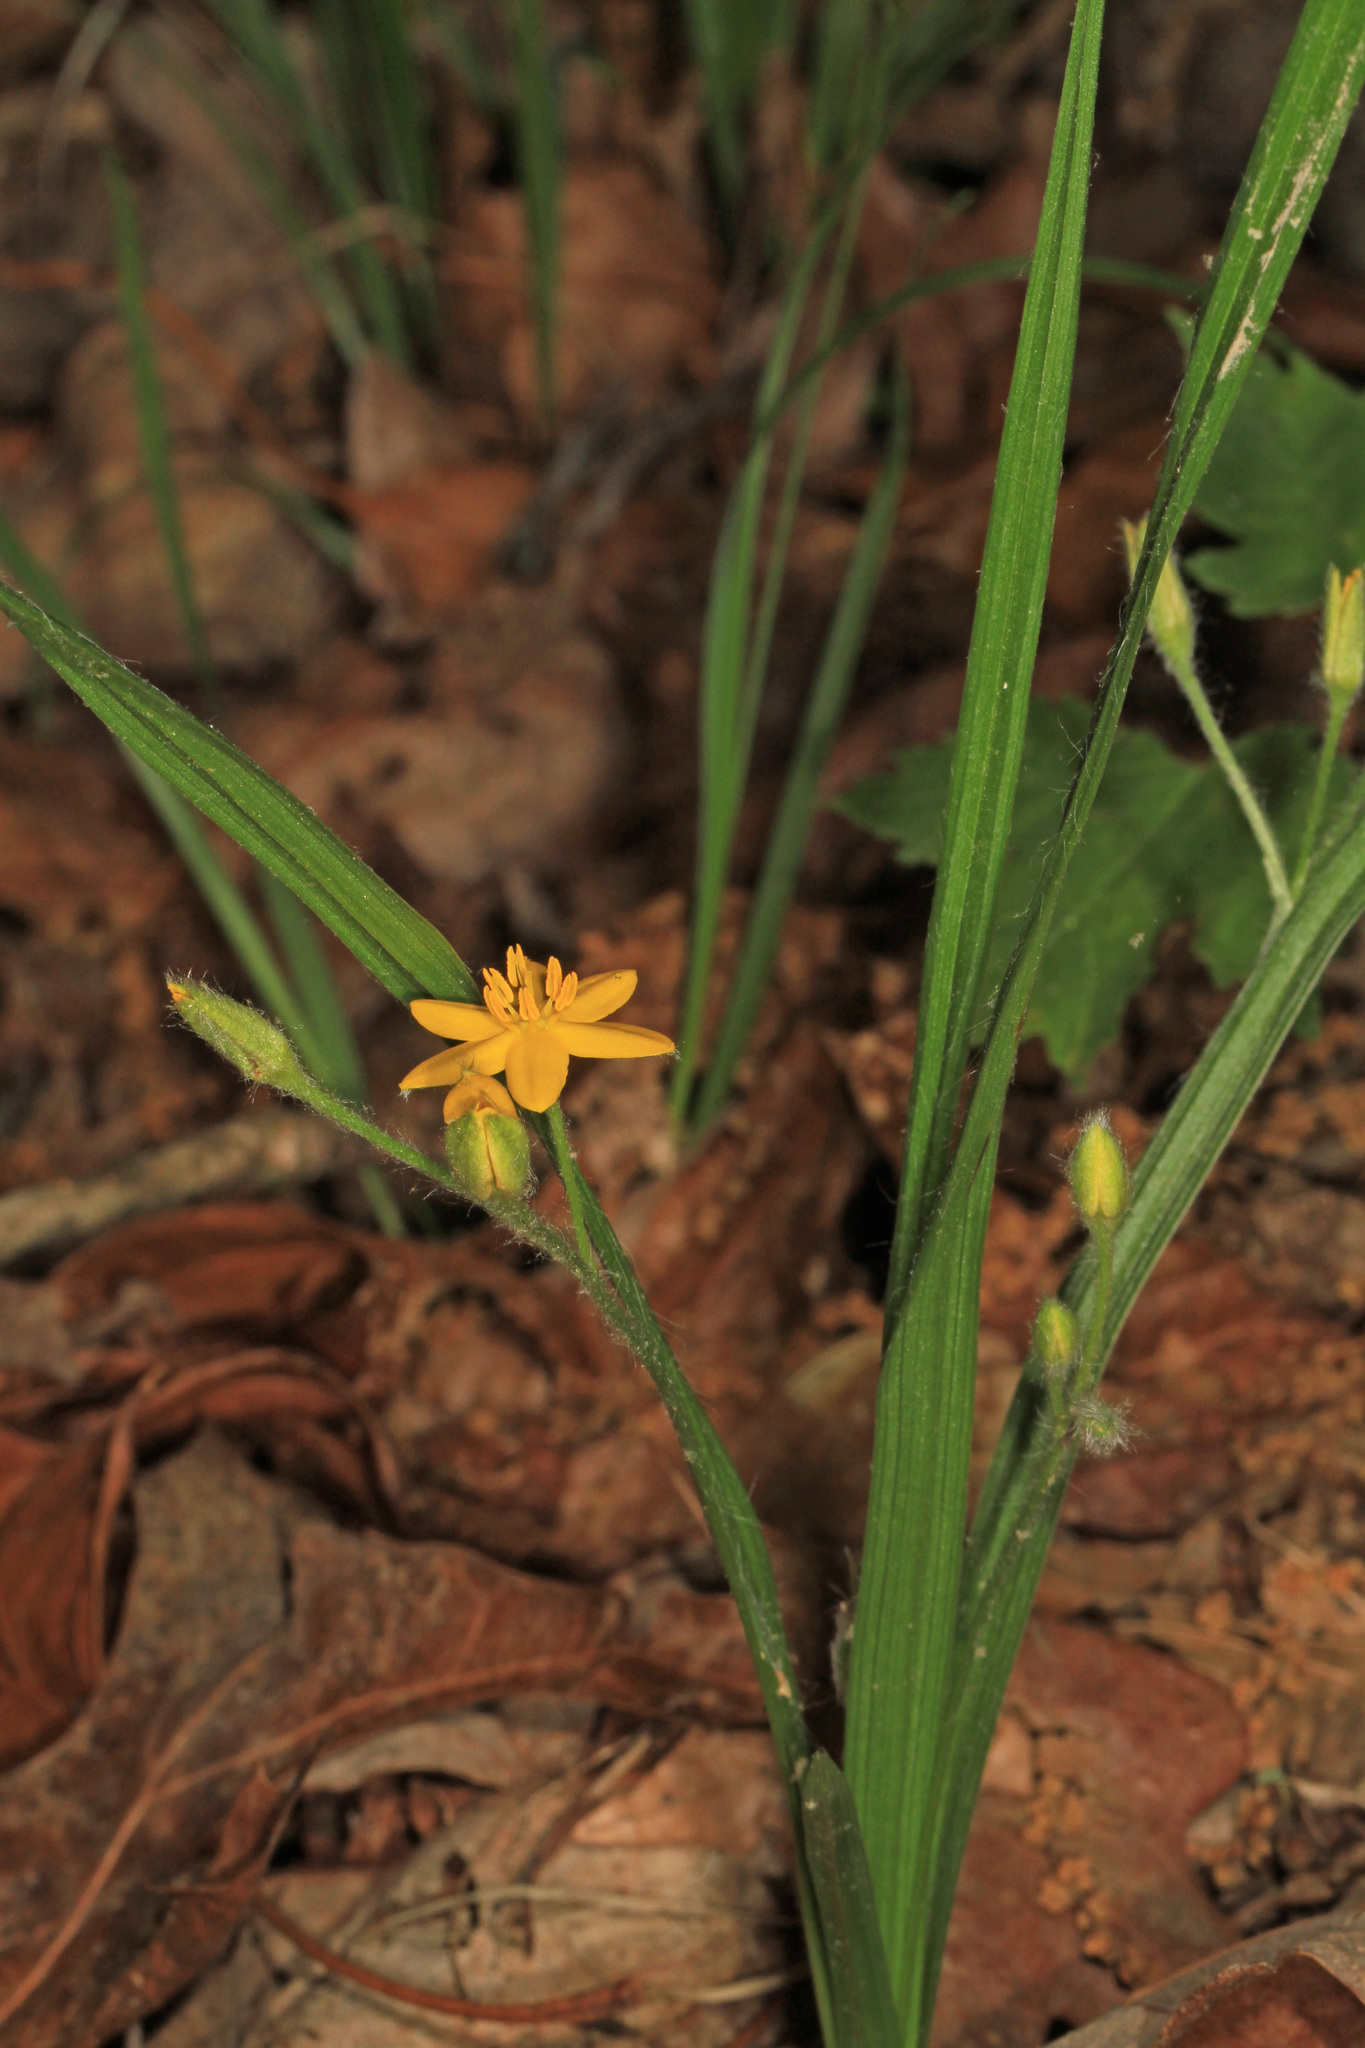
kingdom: Plantae
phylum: Tracheophyta
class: Liliopsida
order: Asparagales
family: Hypoxidaceae
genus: Hypoxis
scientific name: Hypoxis hirsuta
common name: Common goldstar
